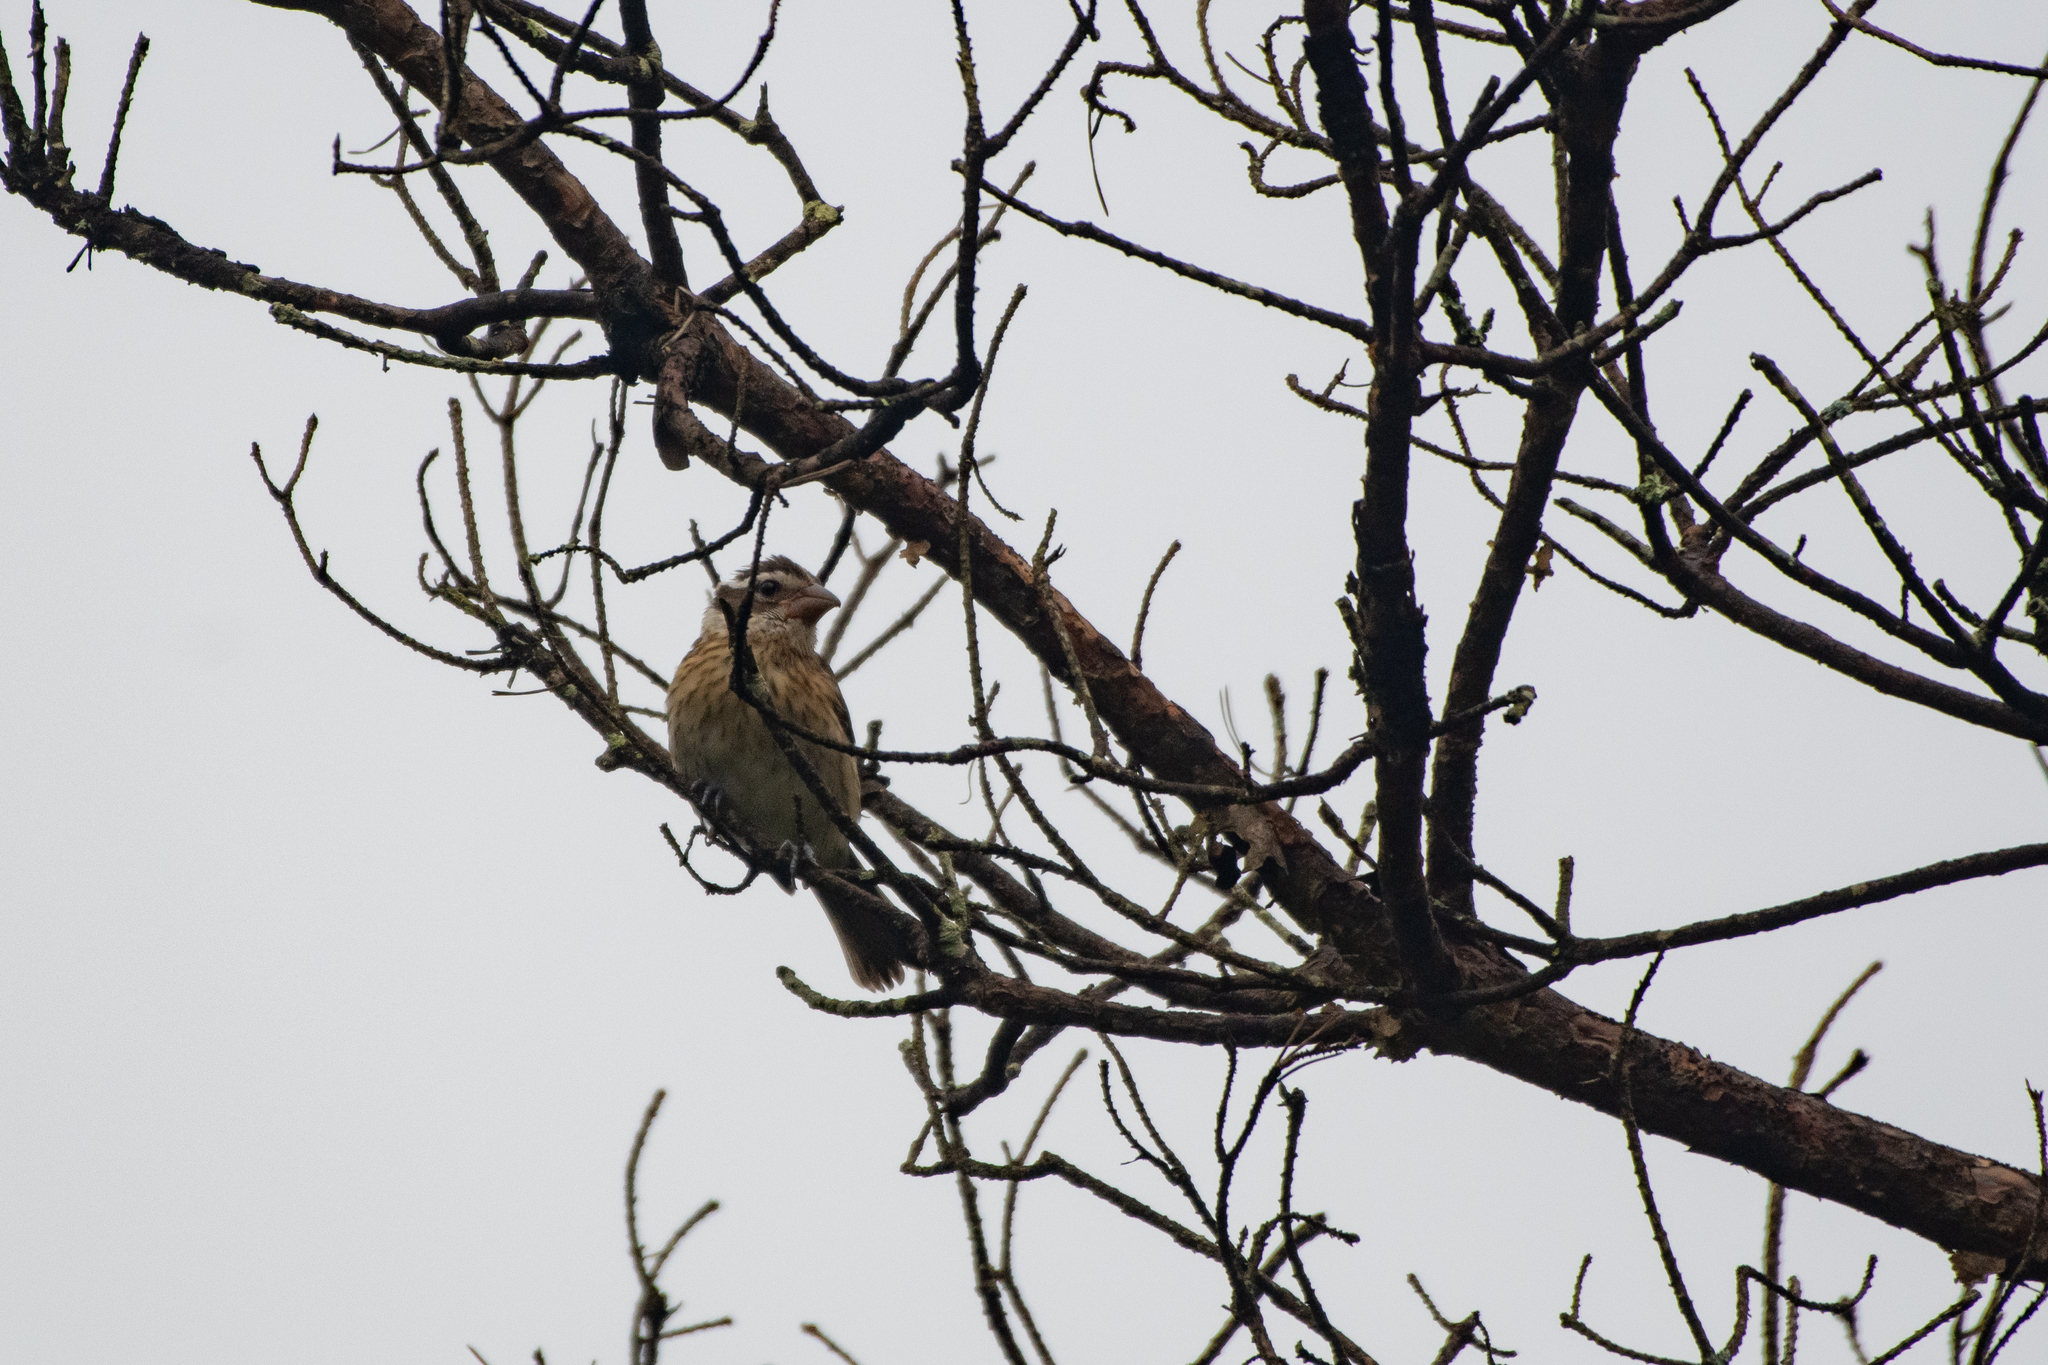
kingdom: Animalia
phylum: Chordata
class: Aves
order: Passeriformes
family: Cardinalidae
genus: Pheucticus
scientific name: Pheucticus ludovicianus
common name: Rose-breasted grosbeak
